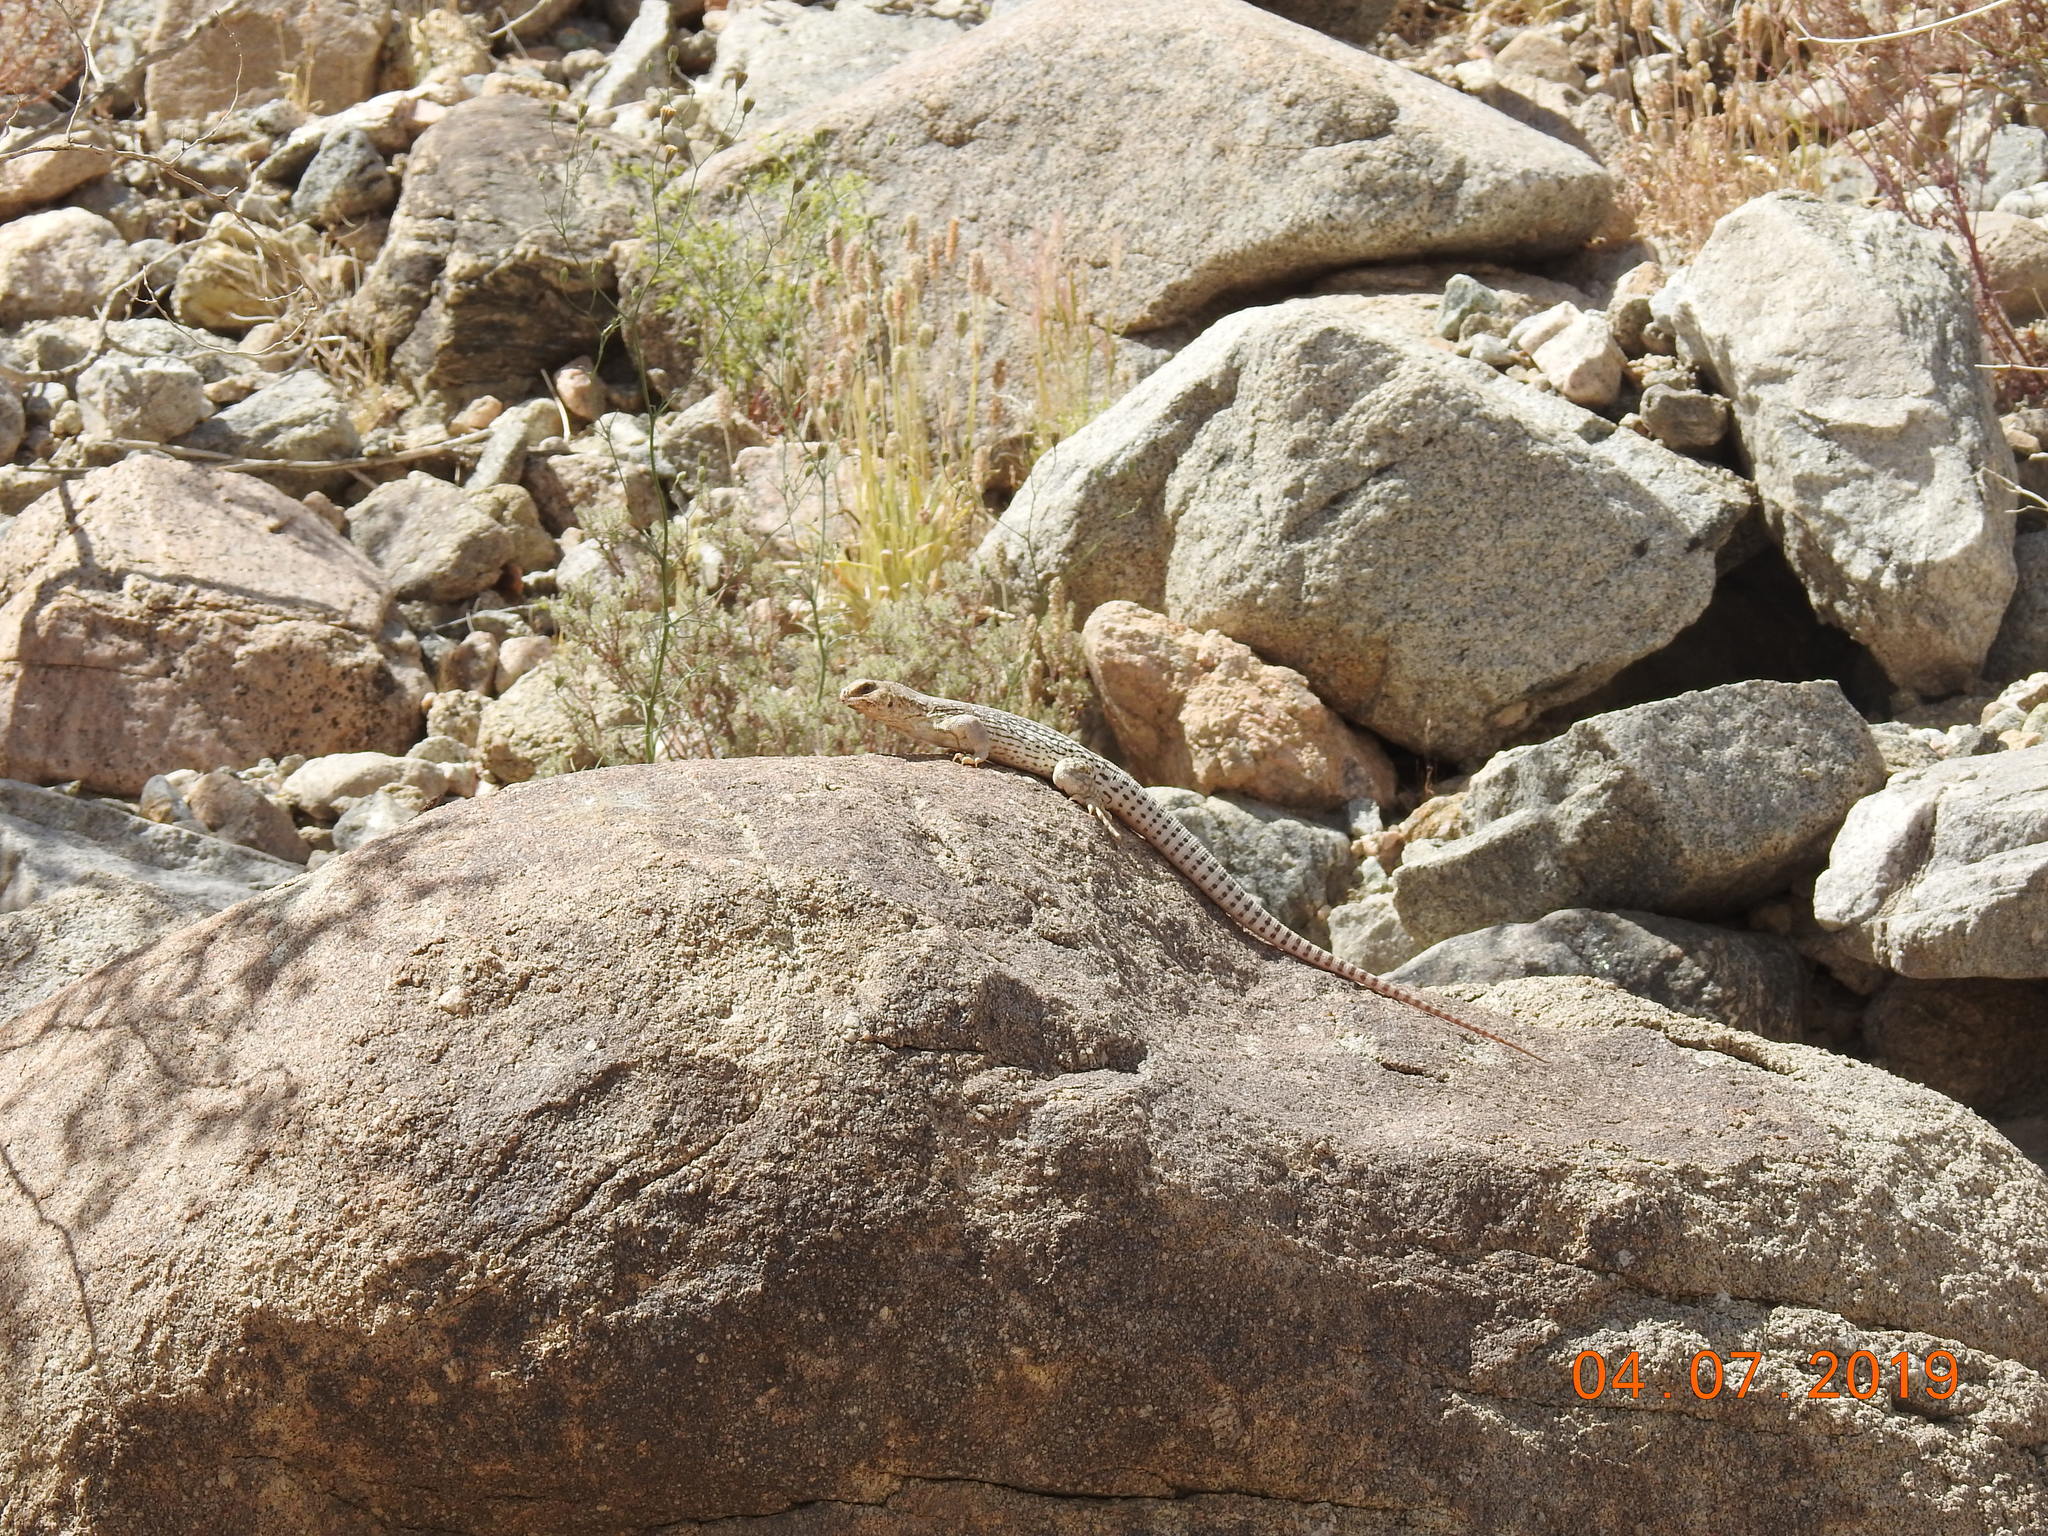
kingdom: Animalia
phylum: Chordata
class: Squamata
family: Iguanidae
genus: Dipsosaurus
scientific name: Dipsosaurus dorsalis
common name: Desert iguana
